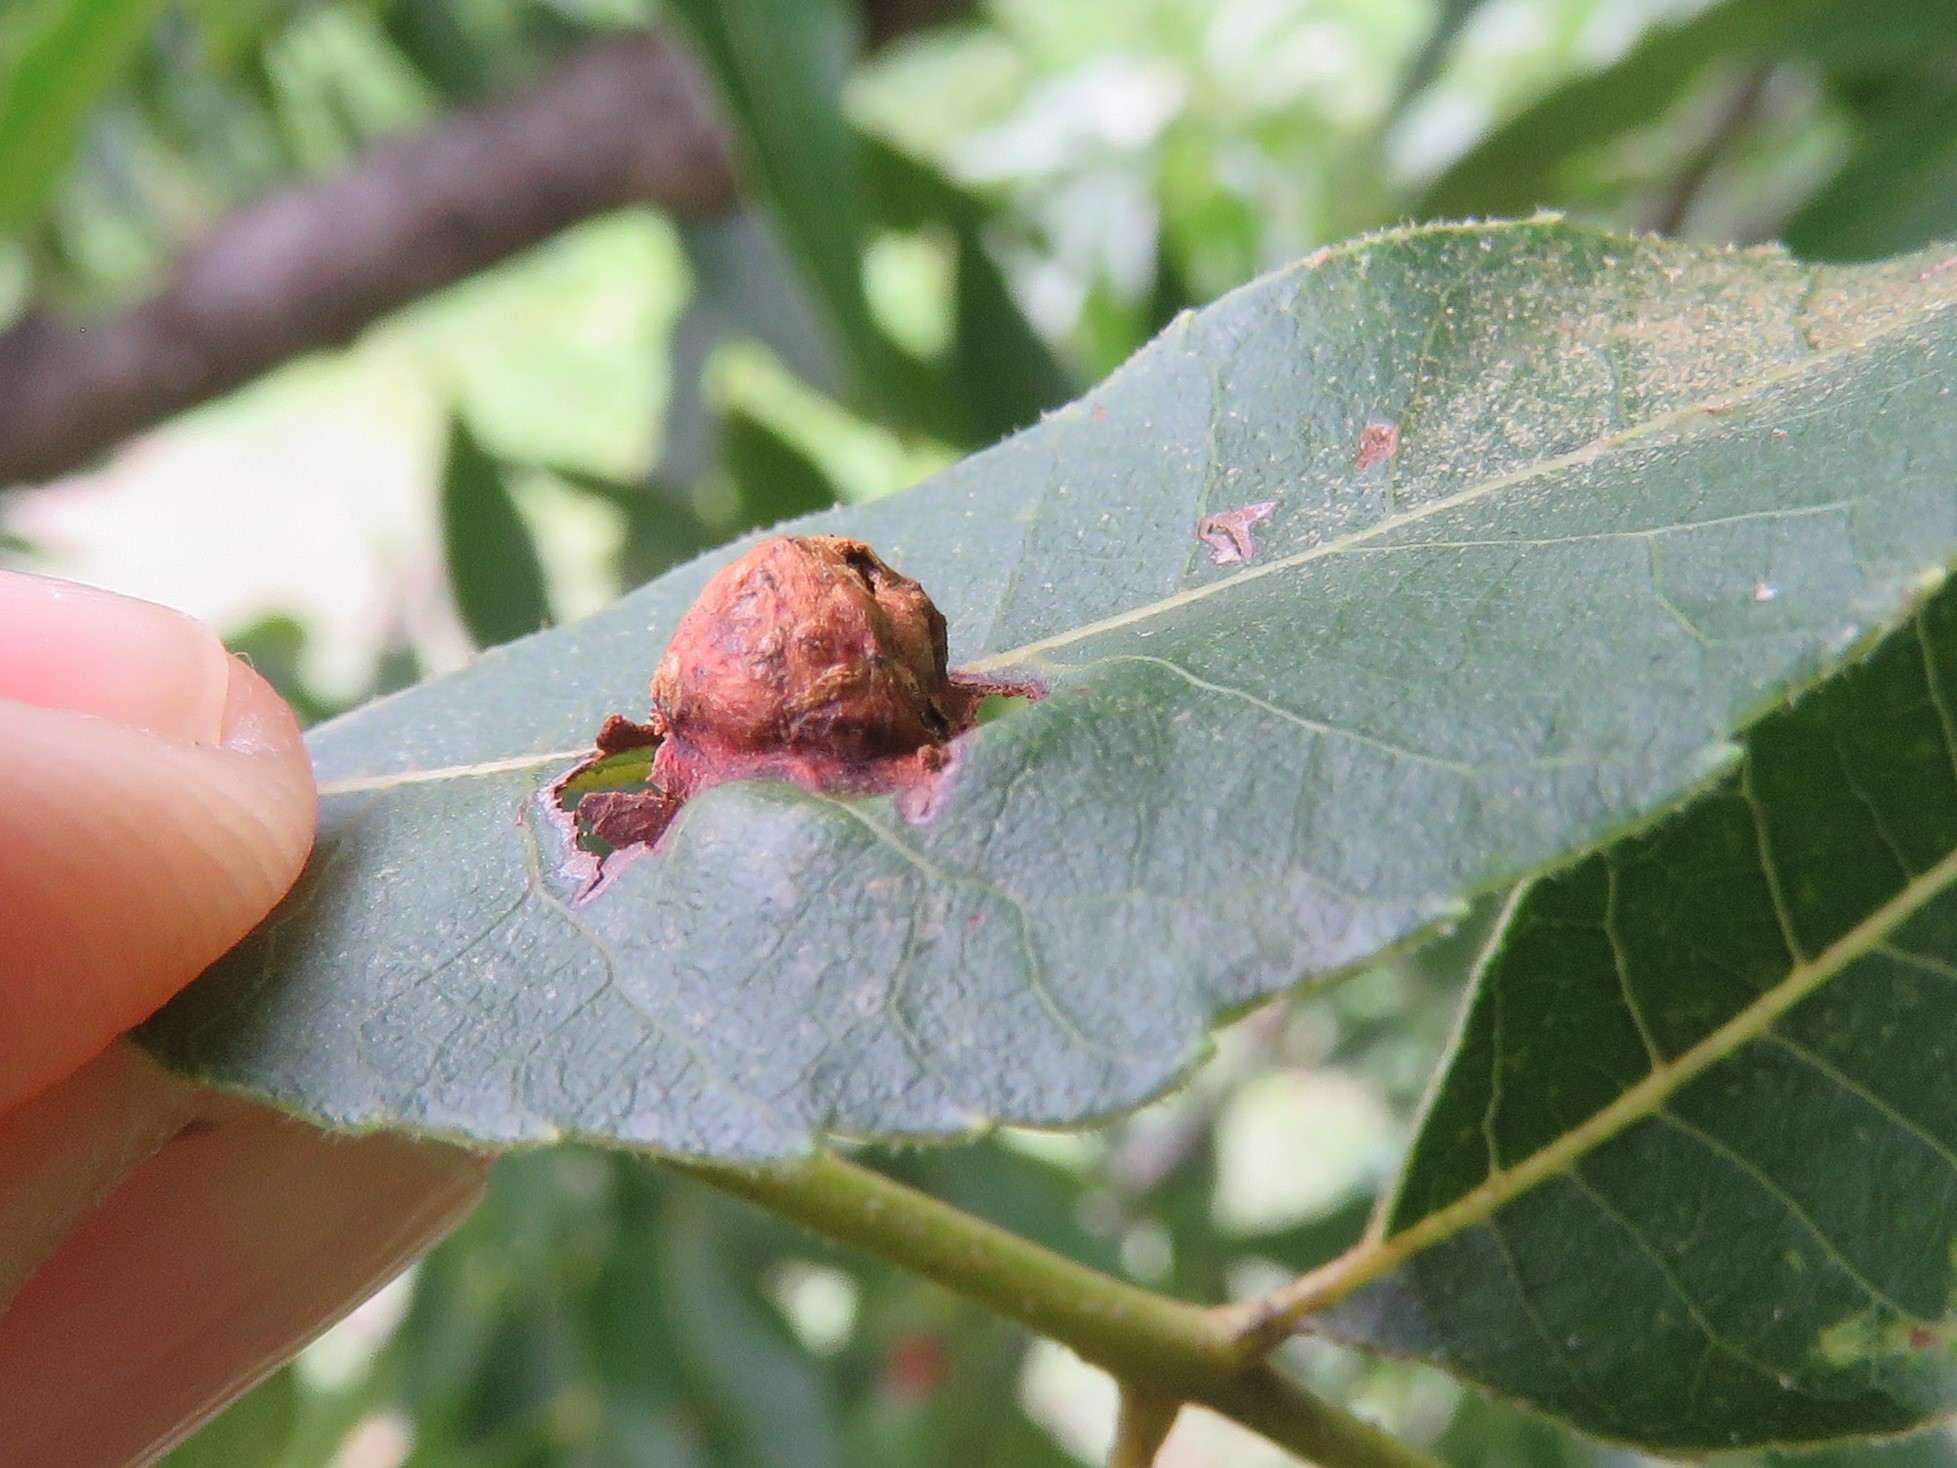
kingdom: Animalia
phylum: Arthropoda
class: Insecta
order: Hemiptera
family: Phylloxeridae
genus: Daktulosphaira
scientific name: Daktulosphaira notabilis
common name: Pecan leaf phylloxera
